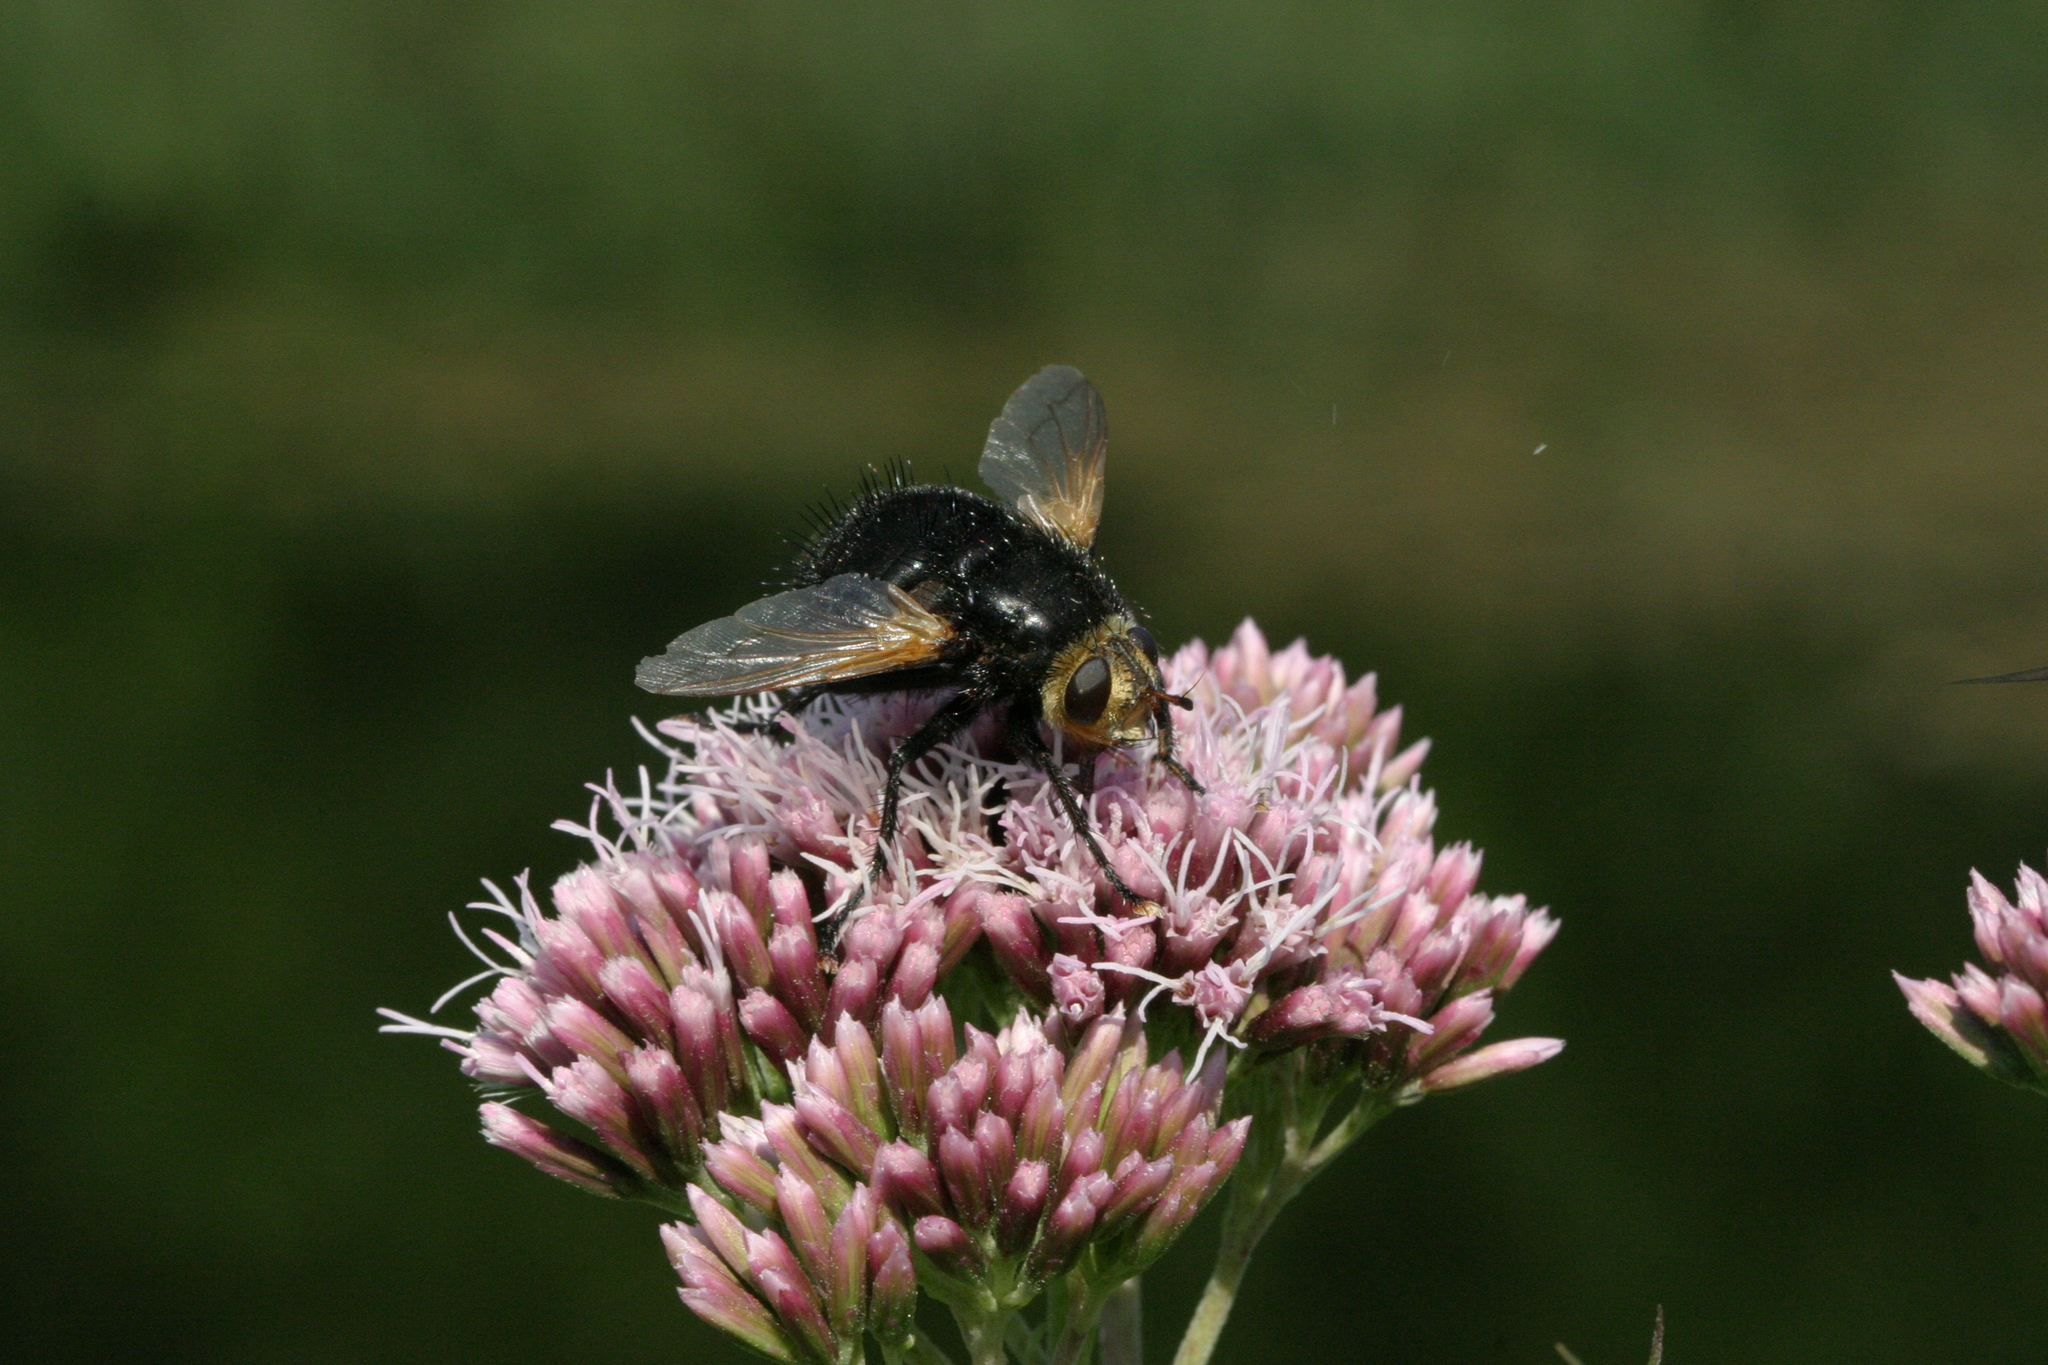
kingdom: Animalia
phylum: Arthropoda
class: Insecta
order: Diptera
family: Tachinidae
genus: Tachina
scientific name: Tachina grossa
